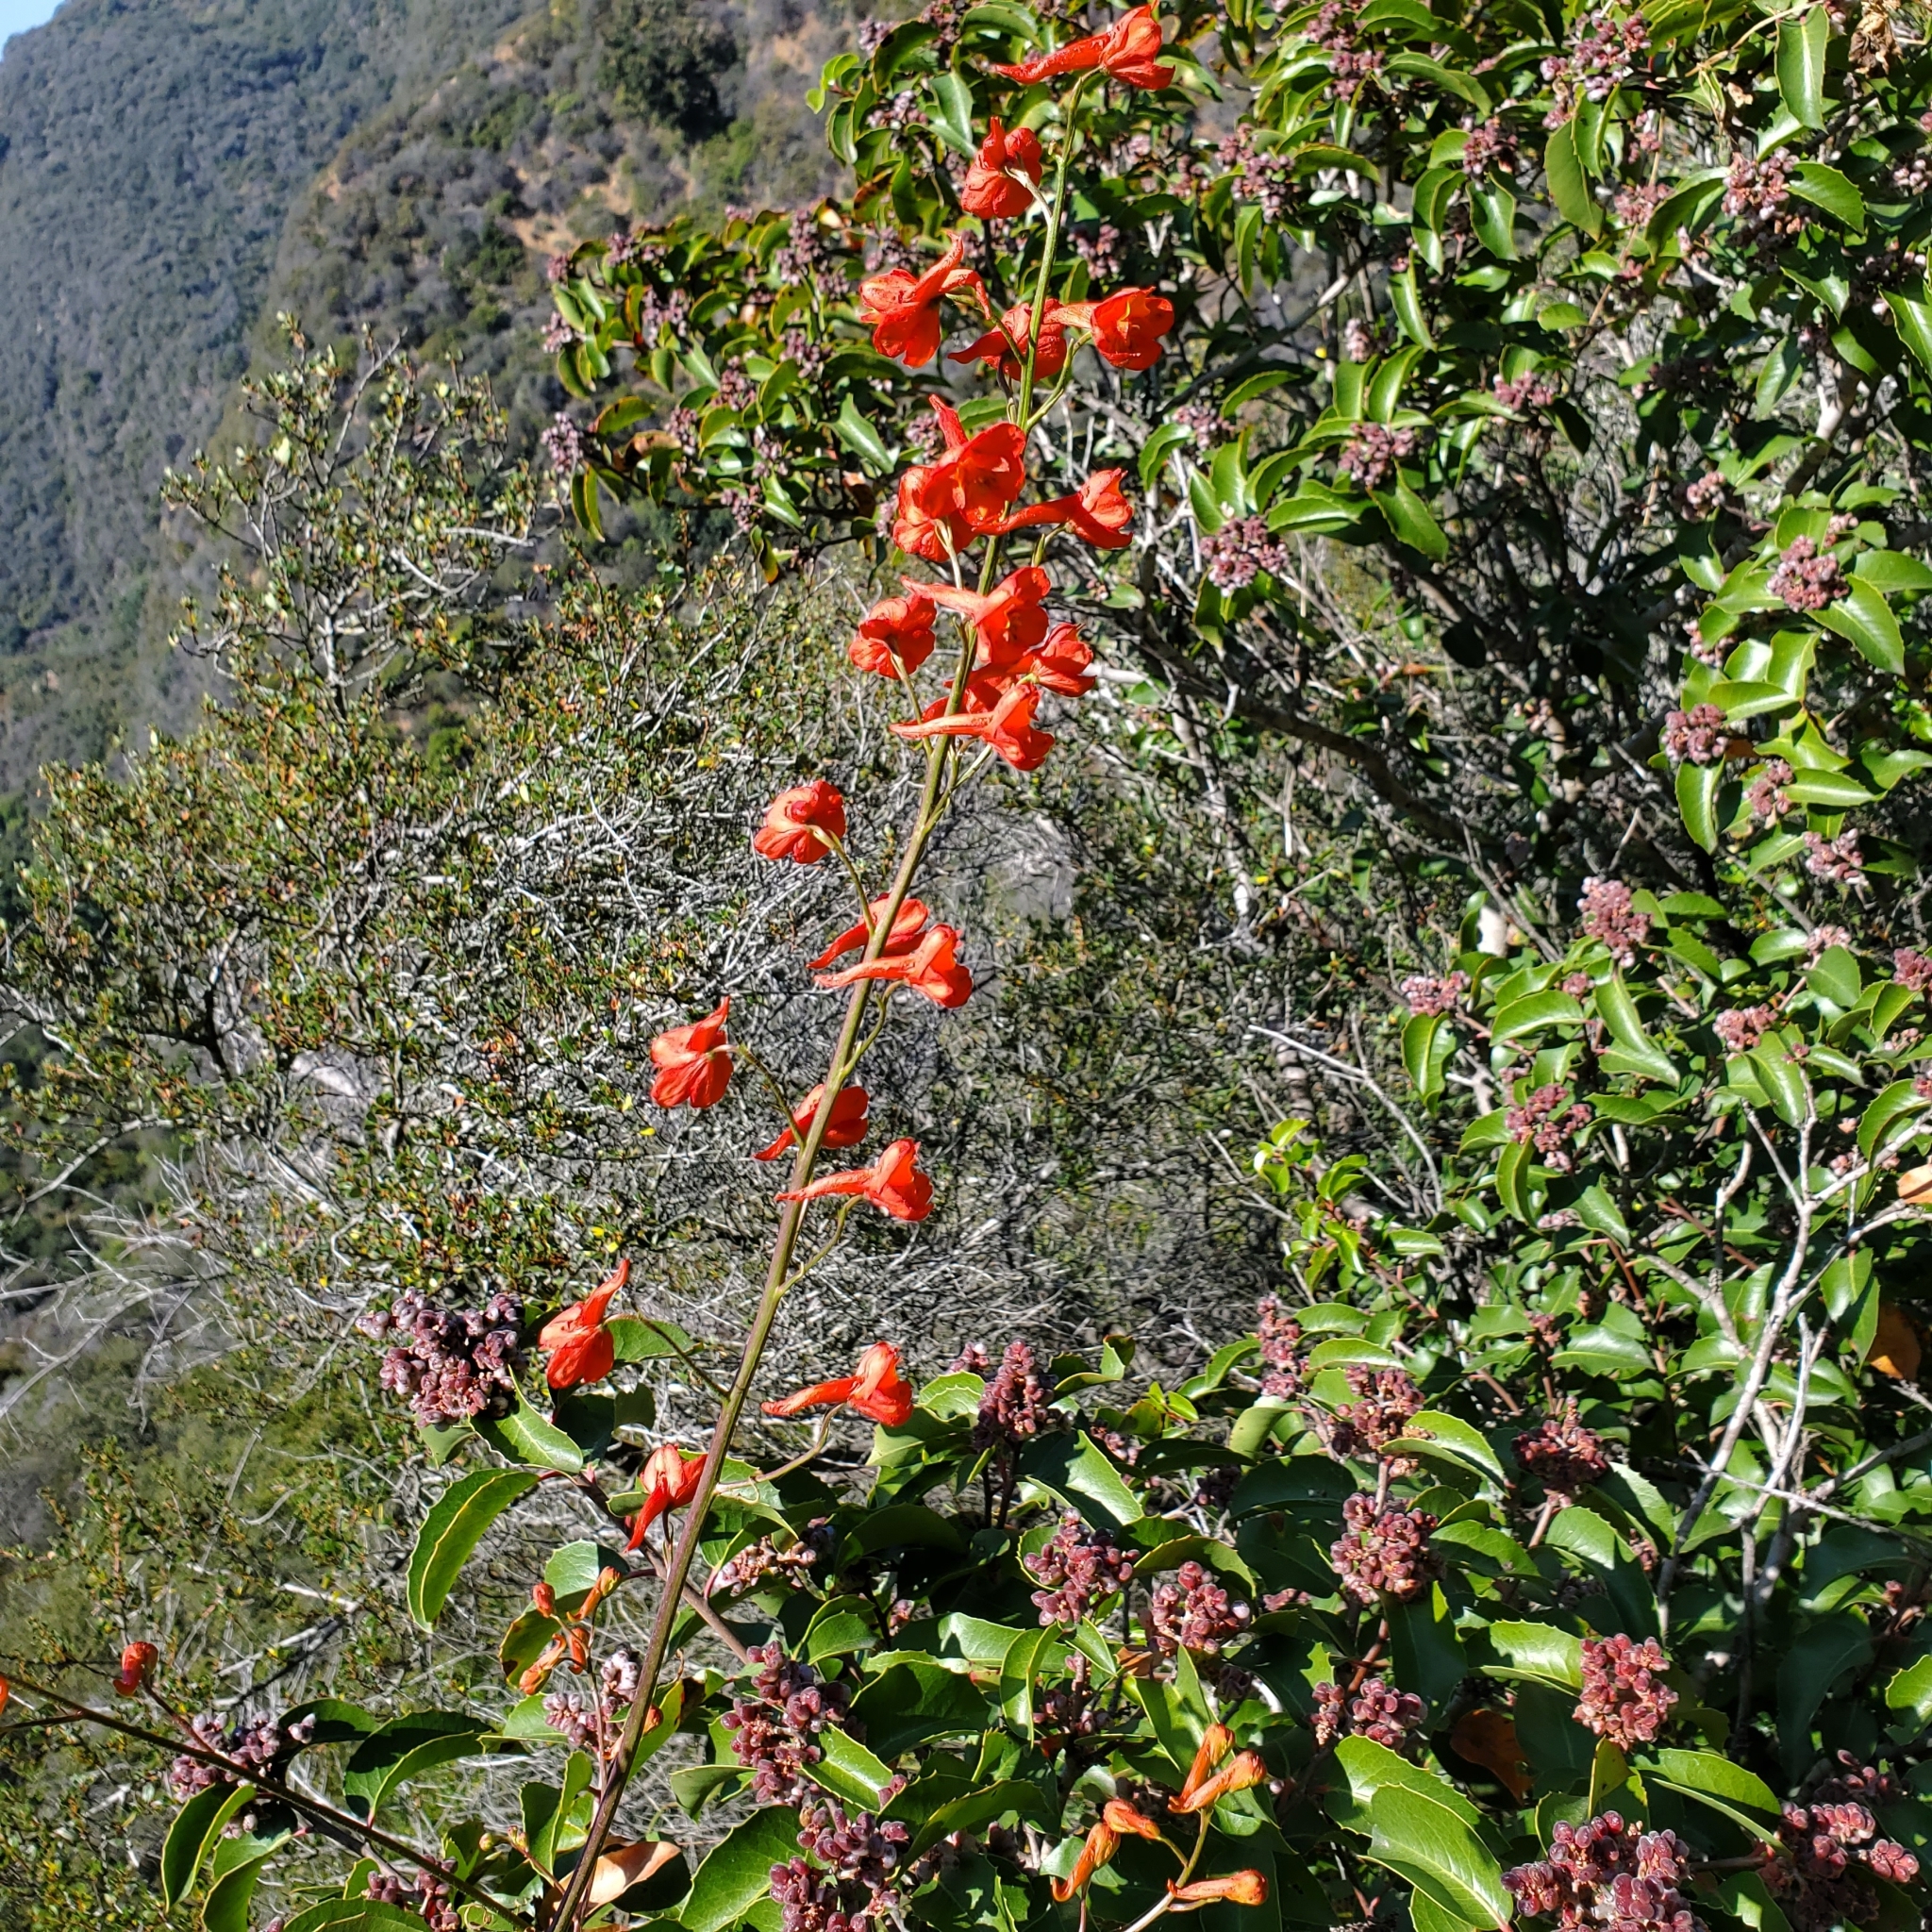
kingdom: Plantae
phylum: Tracheophyta
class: Magnoliopsida
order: Ranunculales
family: Ranunculaceae
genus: Delphinium
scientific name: Delphinium cardinale
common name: Scarlet larkspur
